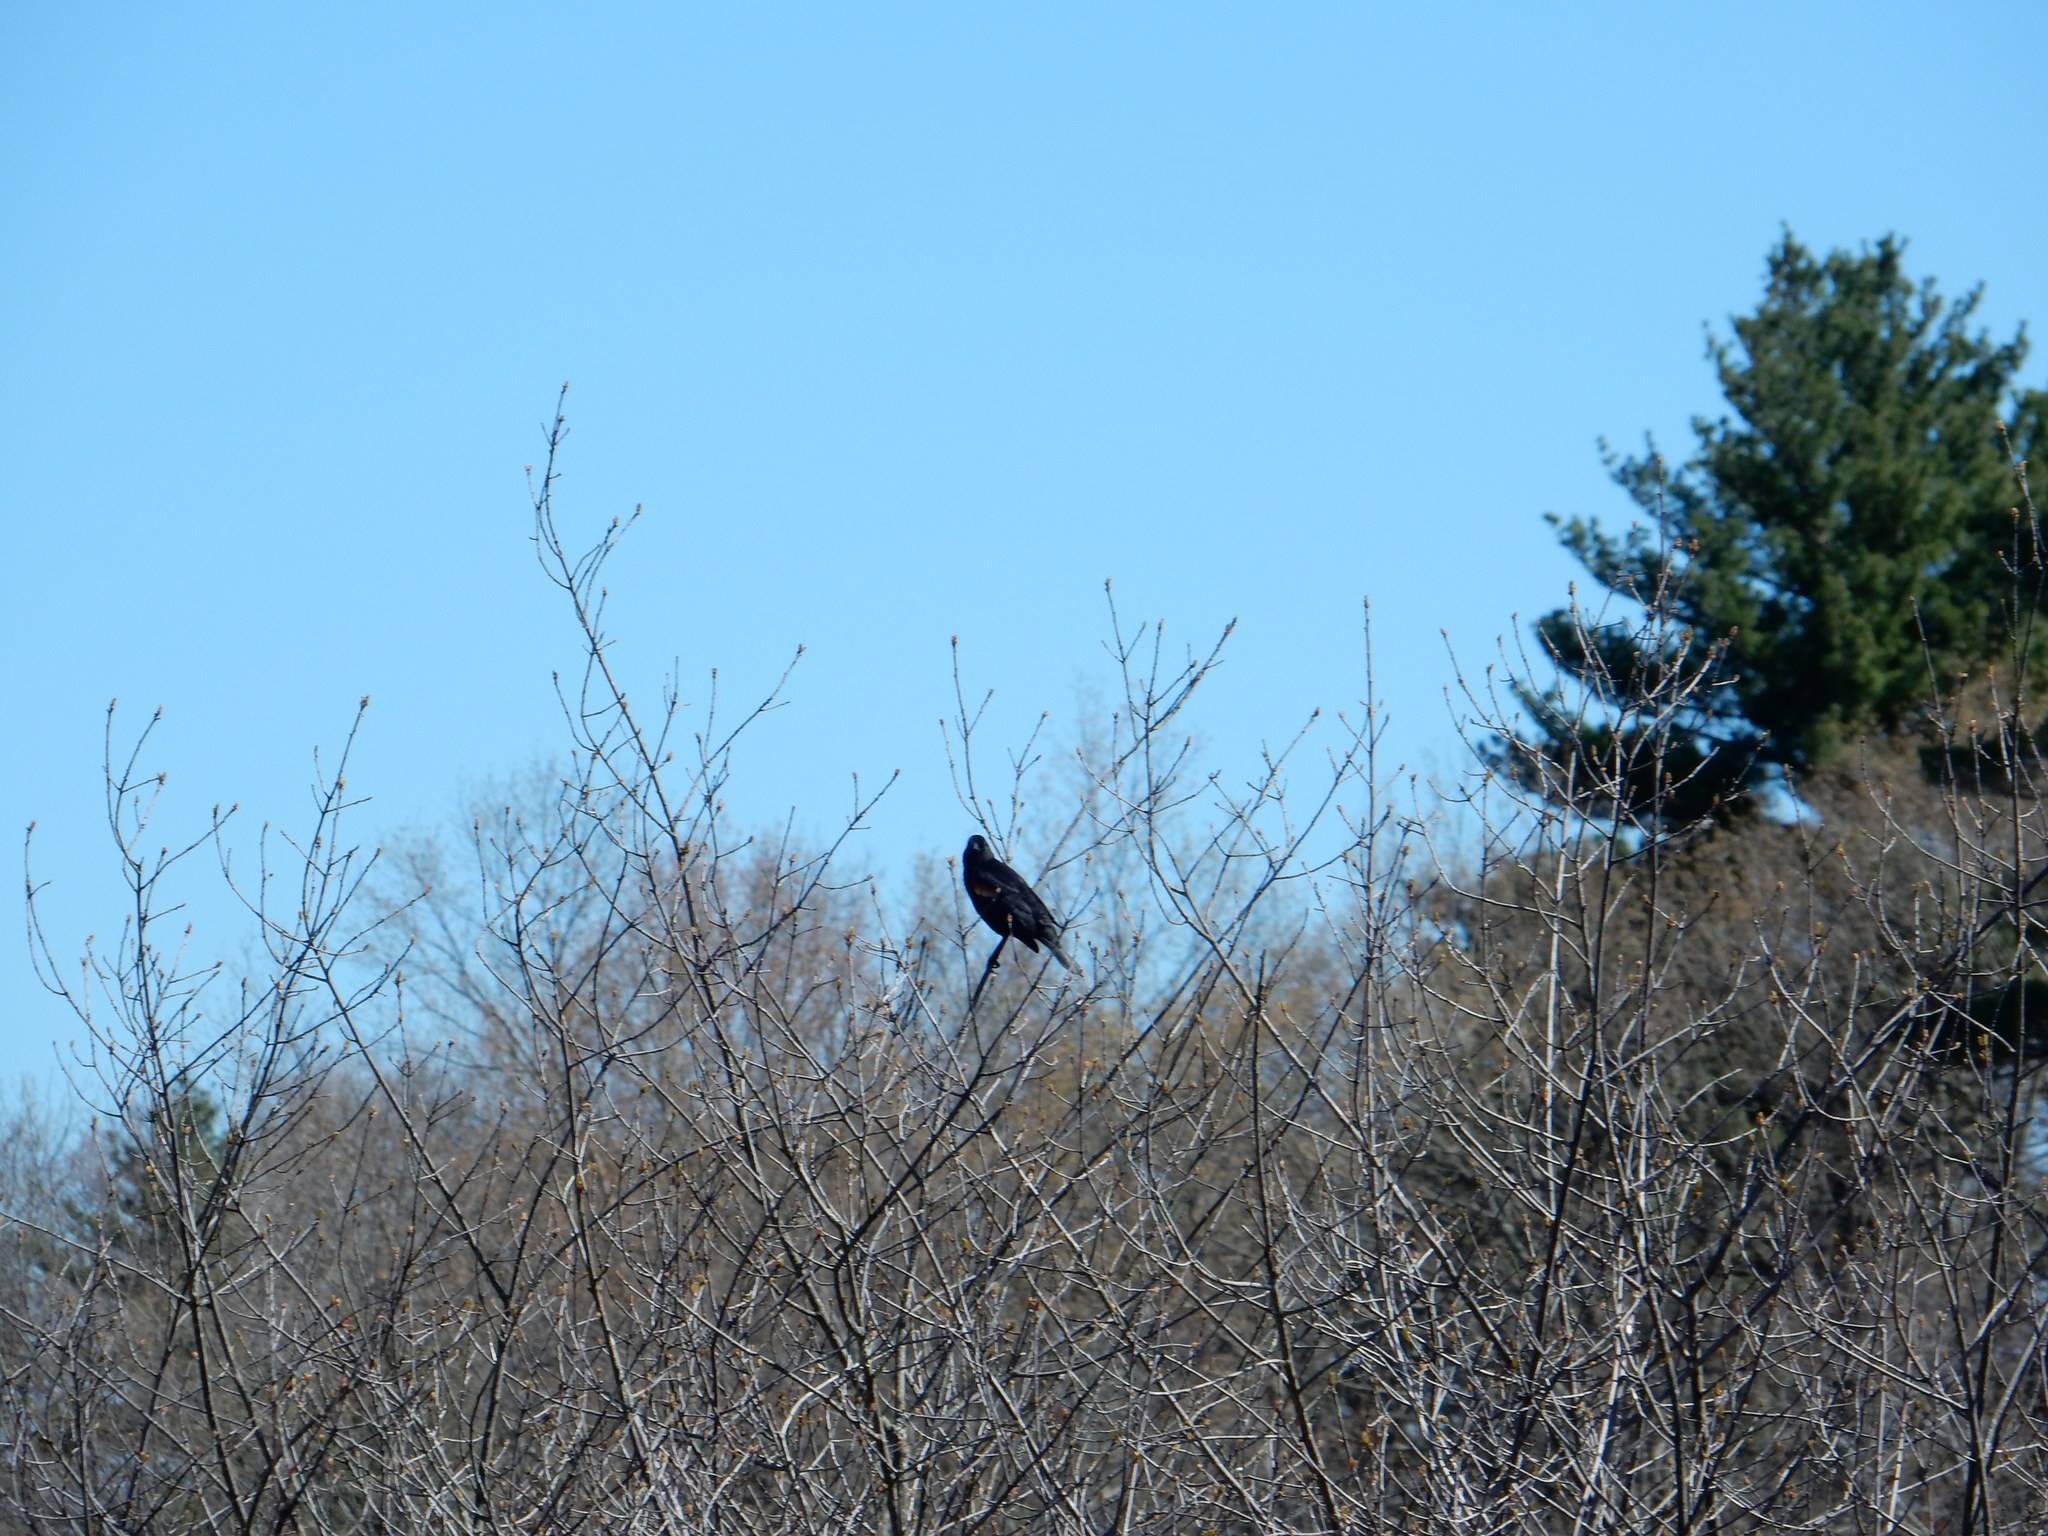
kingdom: Animalia
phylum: Chordata
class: Aves
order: Passeriformes
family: Icteridae
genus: Agelaius
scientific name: Agelaius phoeniceus
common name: Red-winged blackbird
